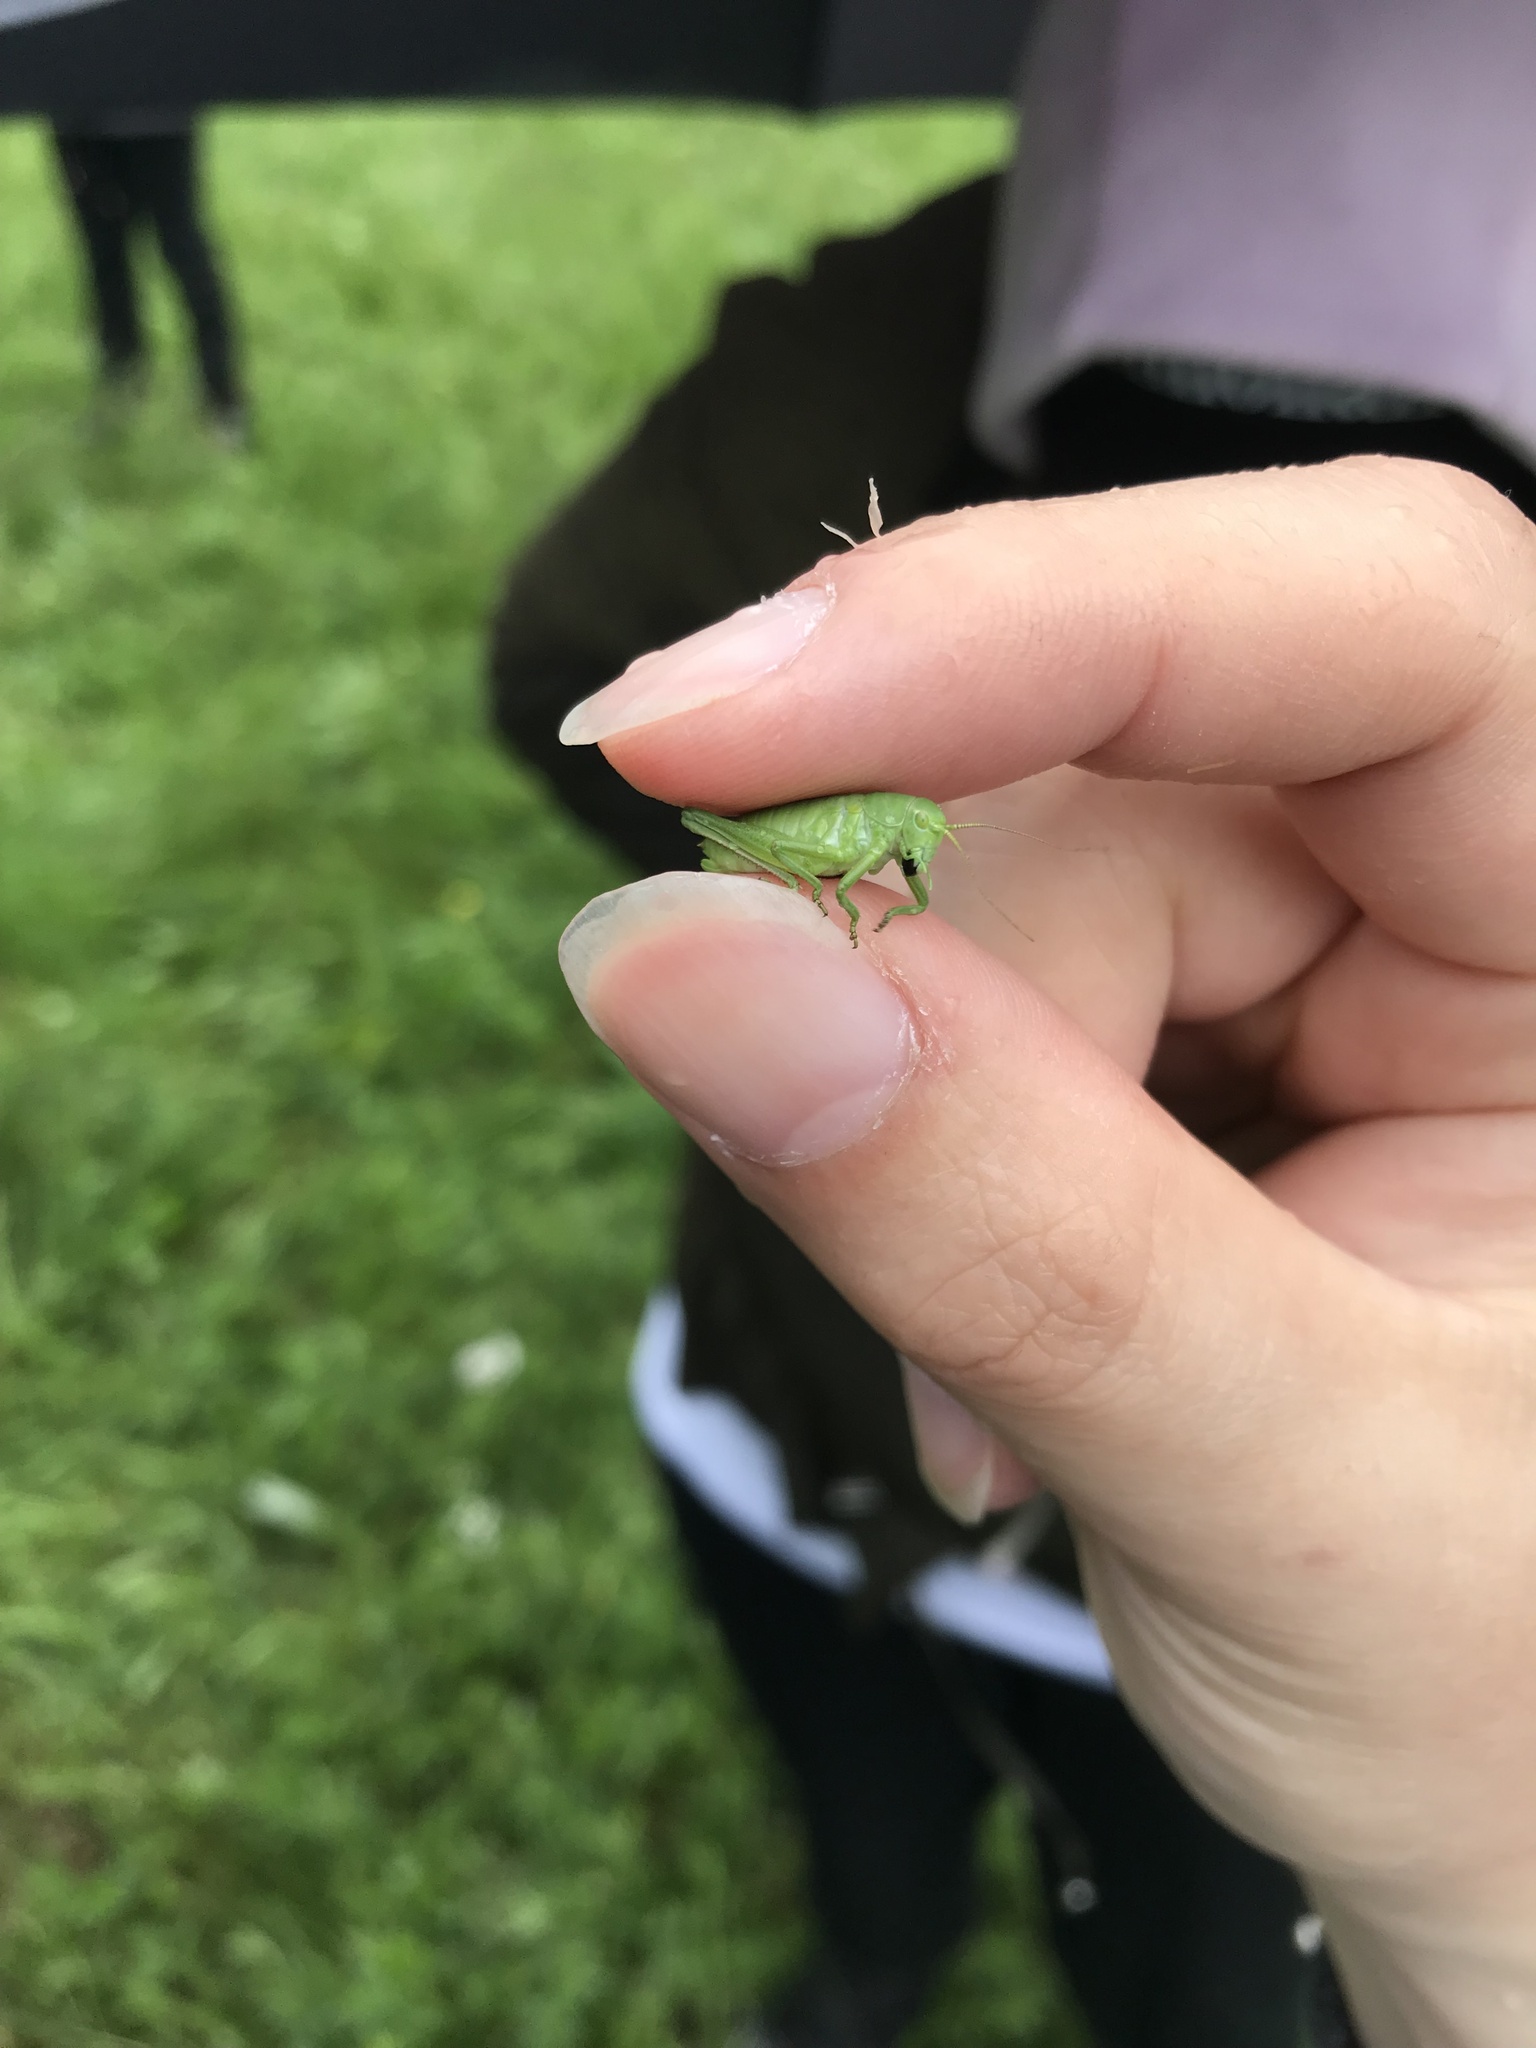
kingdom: Animalia
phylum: Arthropoda
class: Insecta
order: Orthoptera
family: Tettigoniidae
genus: Polysarcus
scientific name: Polysarcus denticauda
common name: Large saw-tailed bush-cricket
